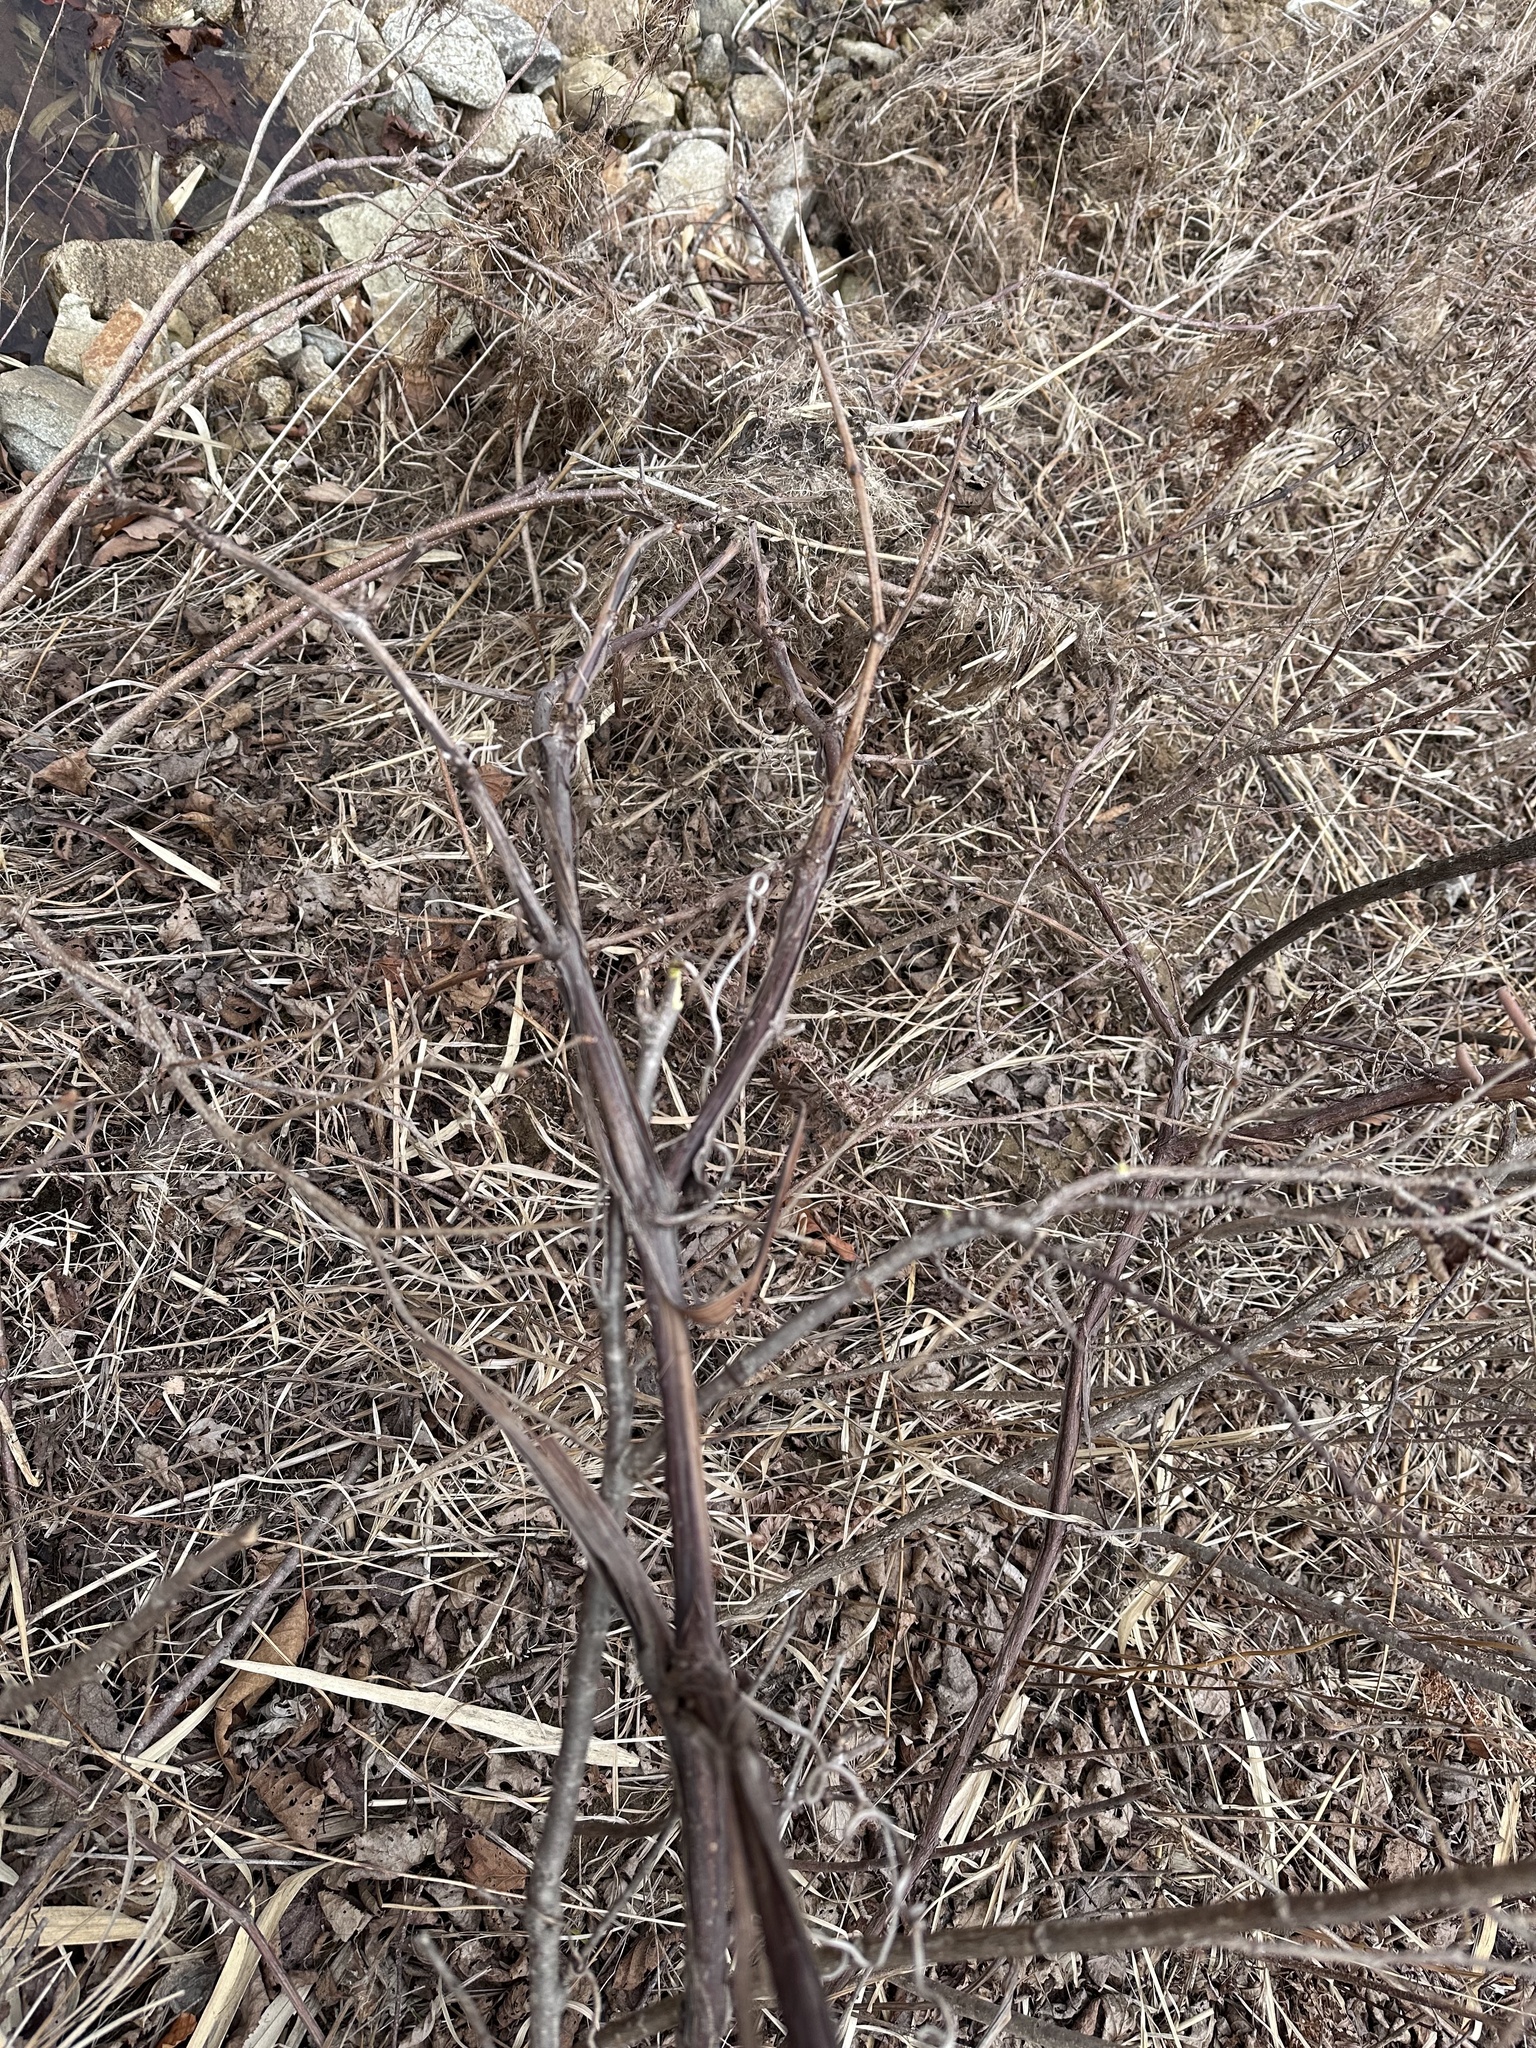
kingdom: Plantae
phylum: Tracheophyta
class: Magnoliopsida
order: Vitales
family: Vitaceae
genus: Vitis
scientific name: Vitis amurensis
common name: Amur grape
